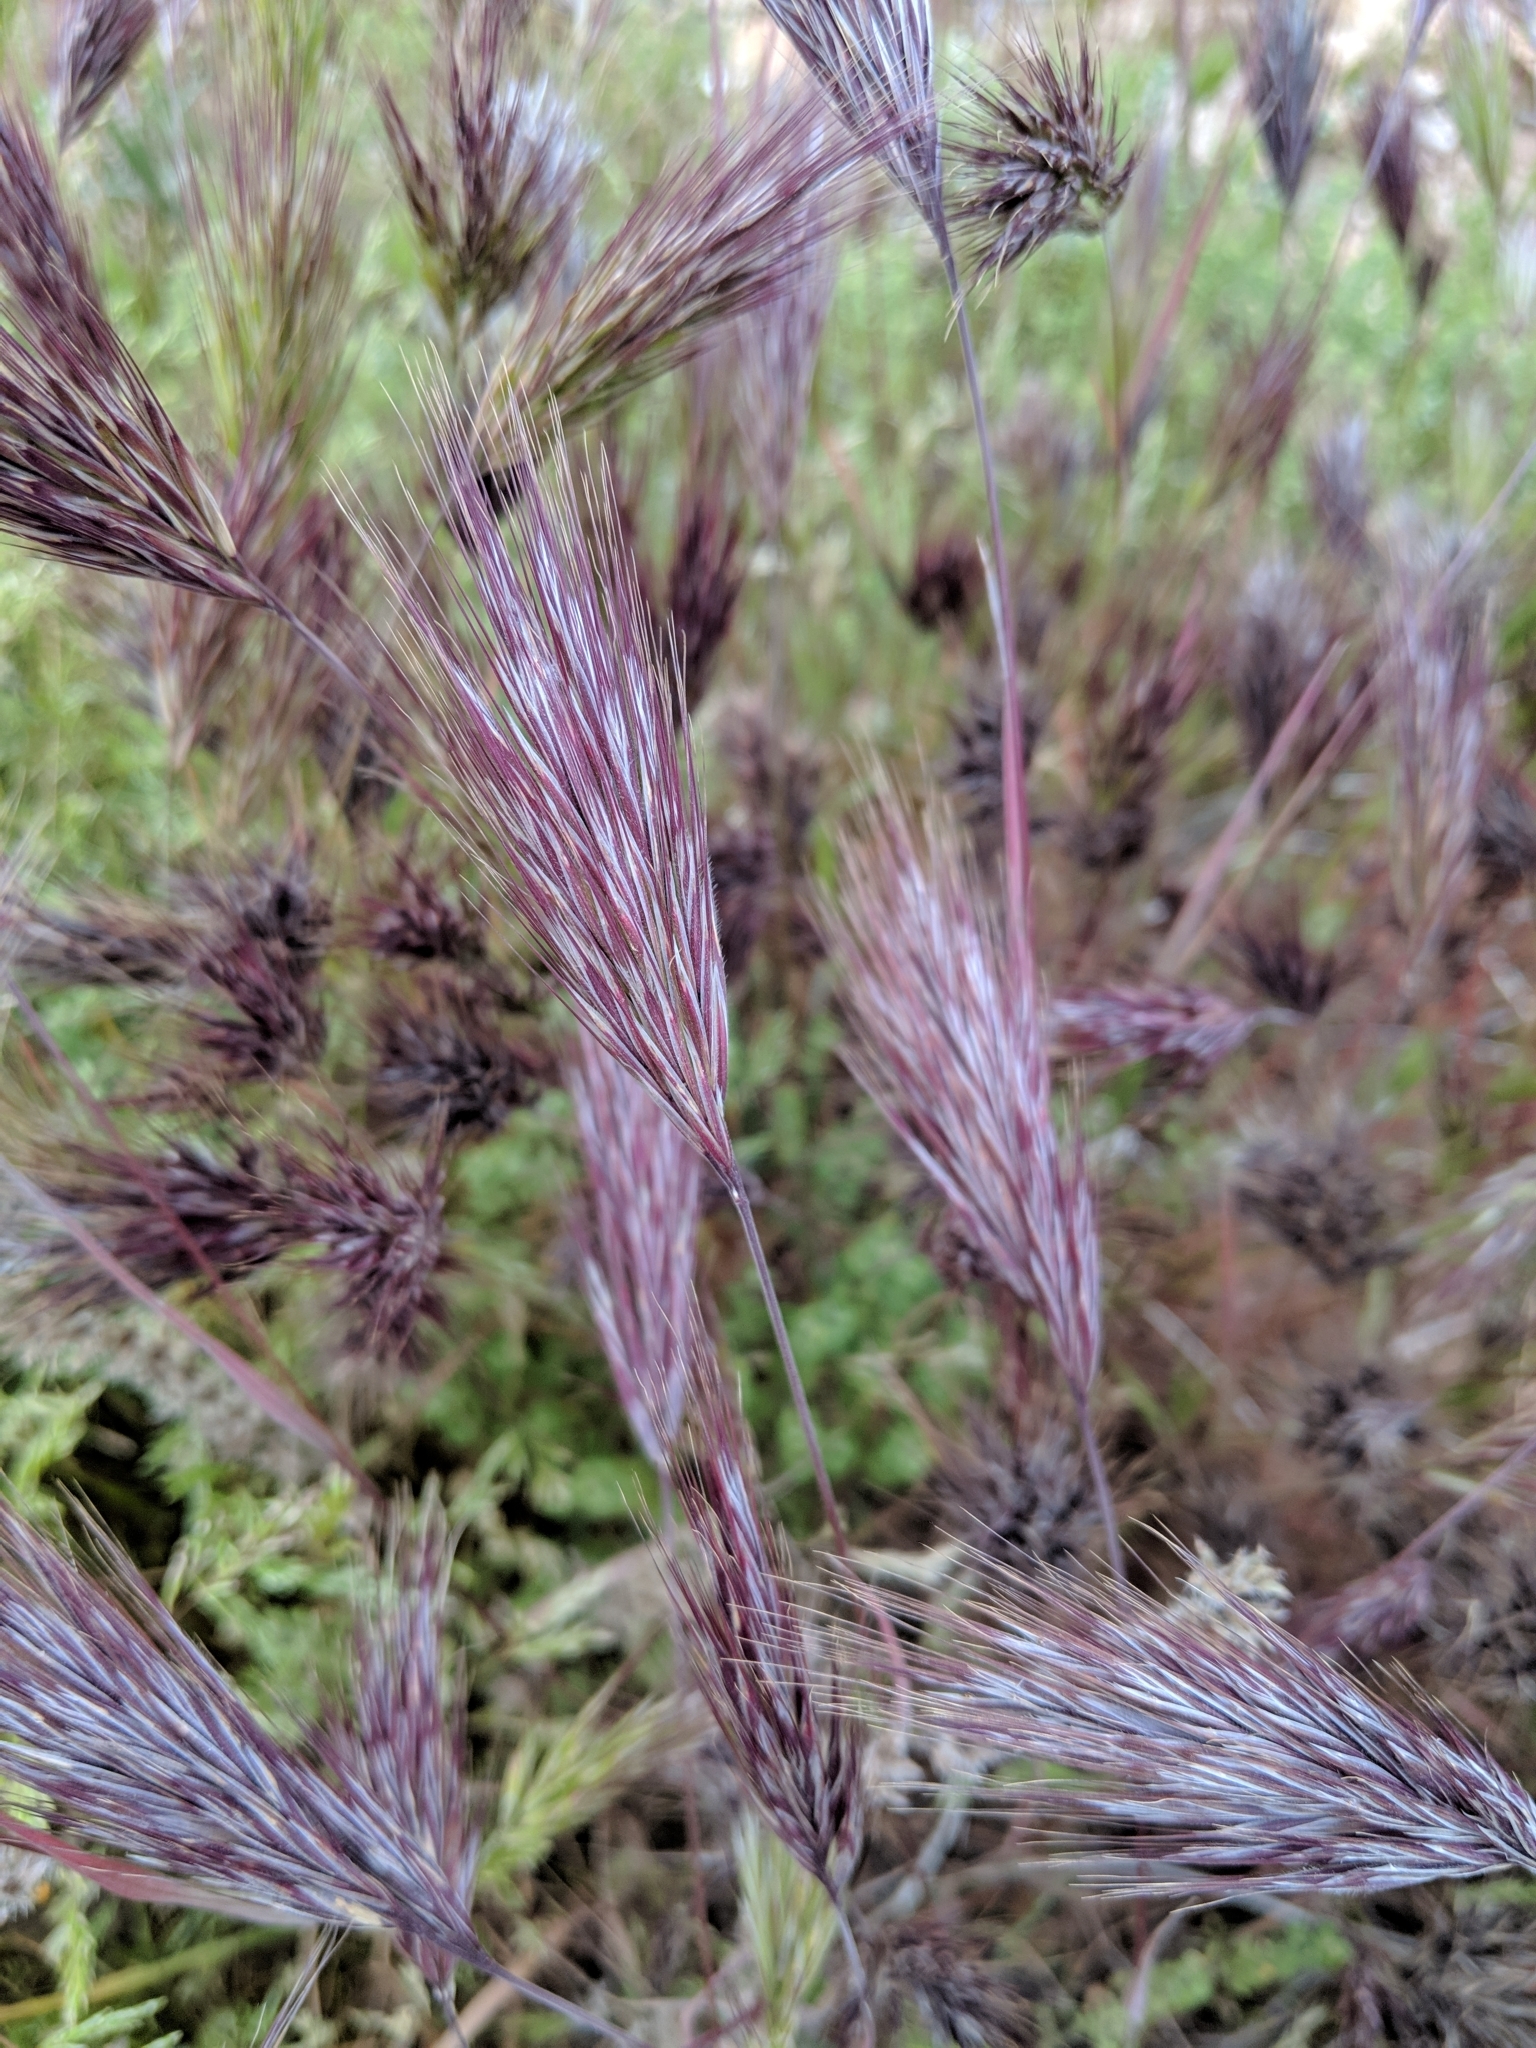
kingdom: Plantae
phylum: Tracheophyta
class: Liliopsida
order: Poales
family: Poaceae
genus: Bromus
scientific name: Bromus rubens
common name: Red brome
